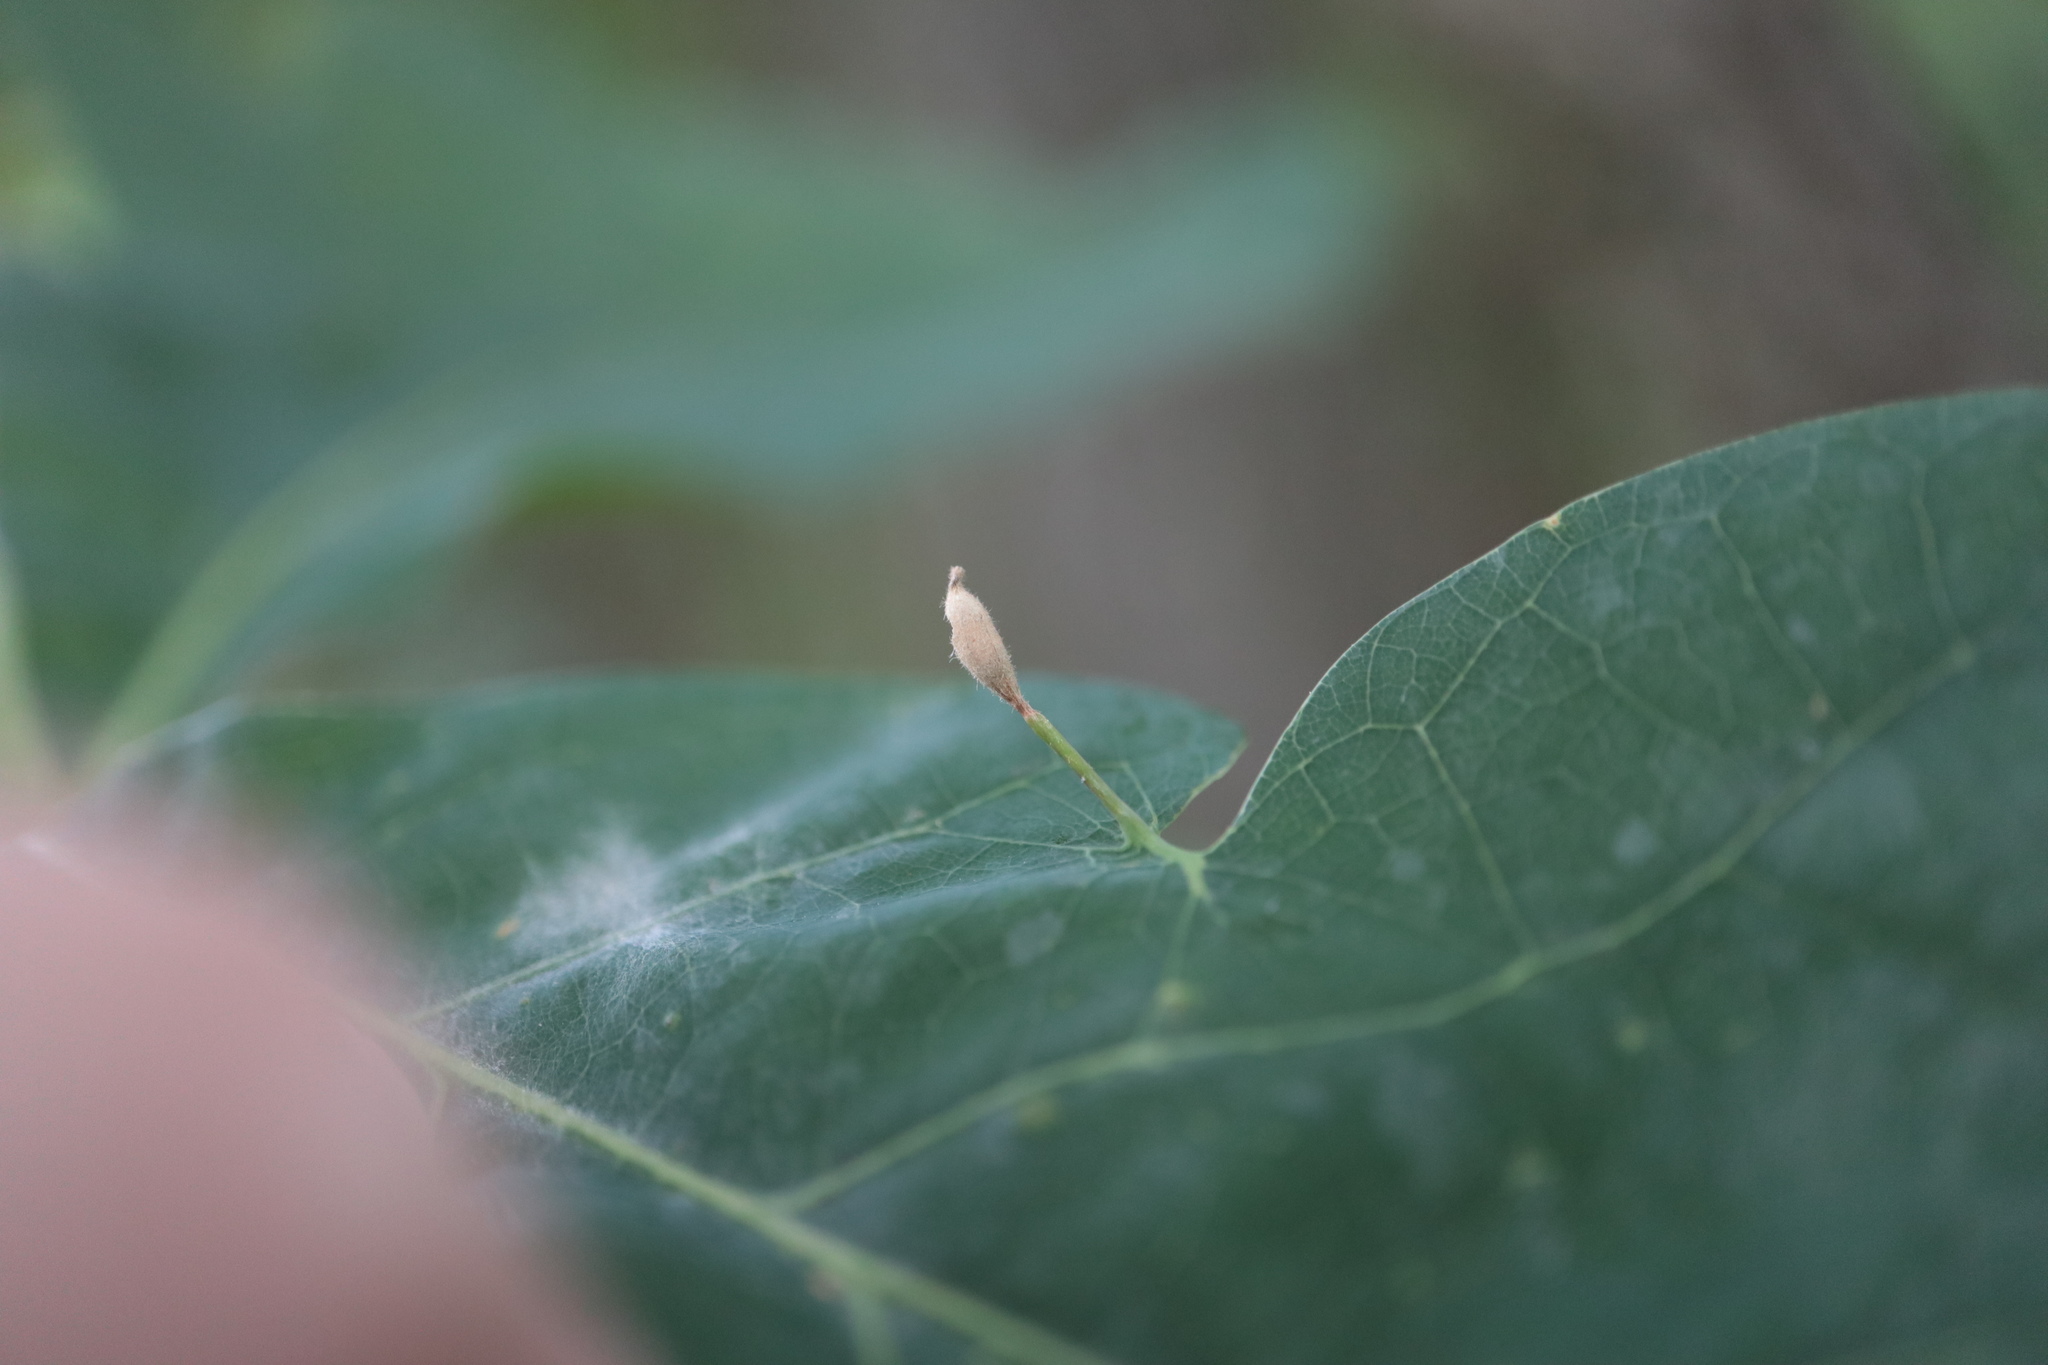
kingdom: Animalia
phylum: Arthropoda
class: Insecta
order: Hymenoptera
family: Cynipidae
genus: Andricus
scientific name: Andricus
